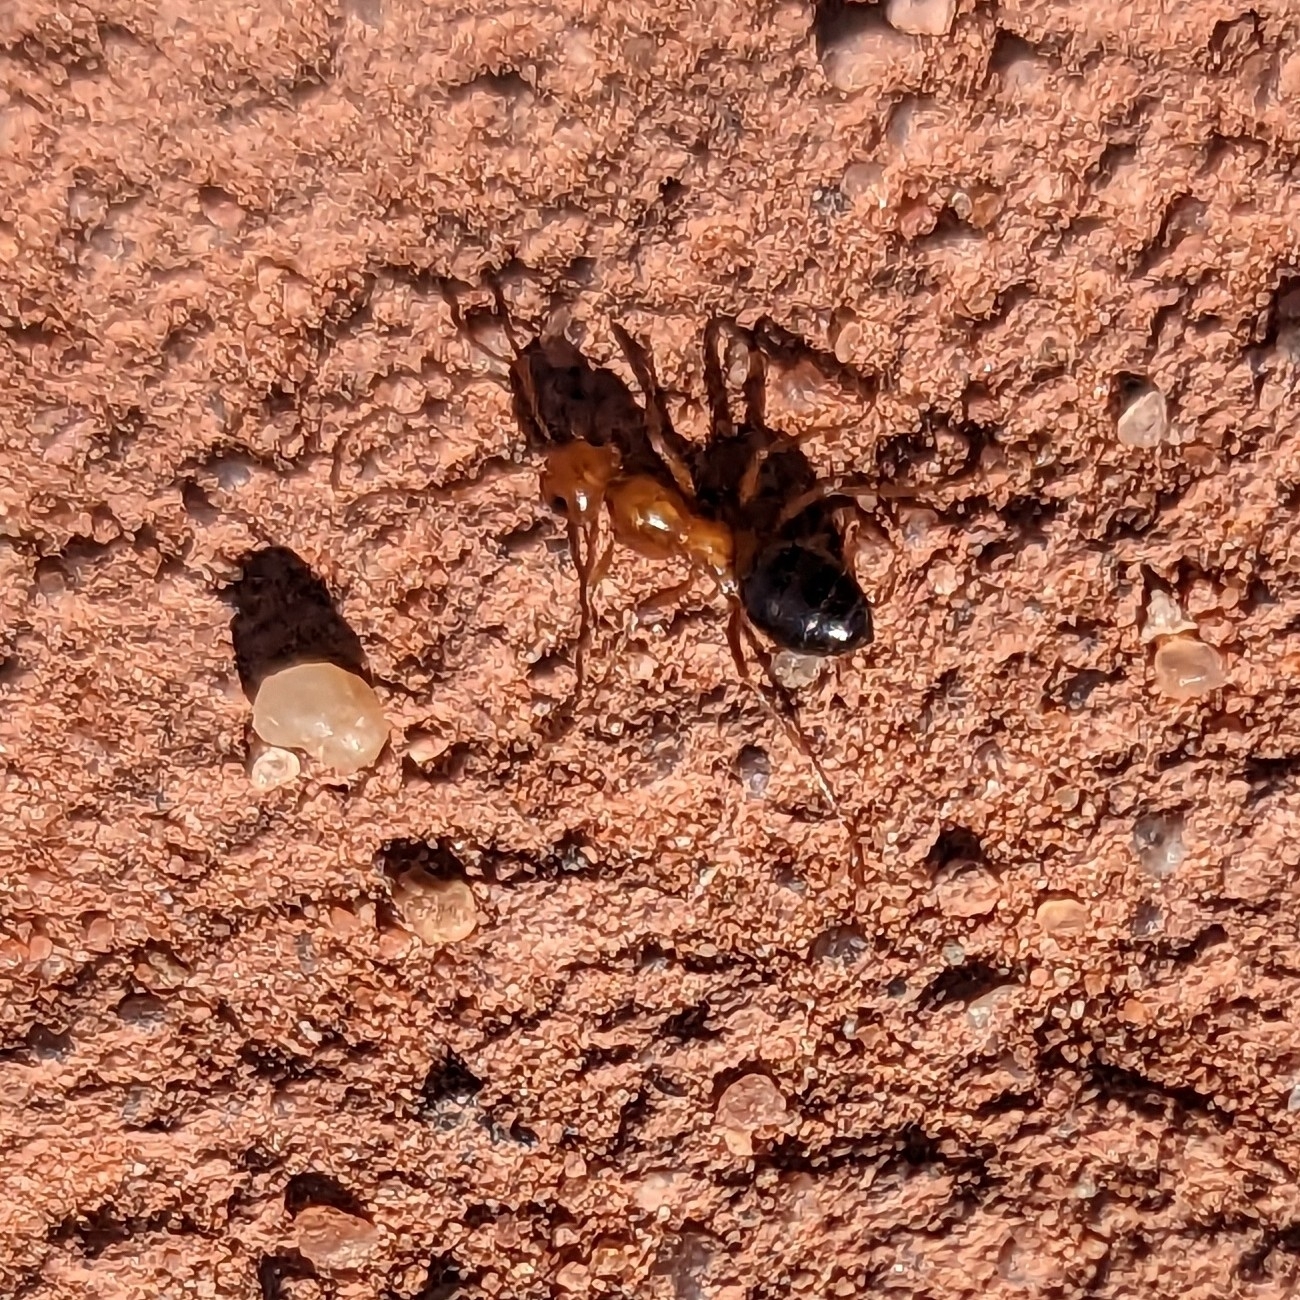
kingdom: Animalia
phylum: Arthropoda
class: Insecta
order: Hymenoptera
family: Formicidae
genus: Formica
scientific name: Formica perpilosa
